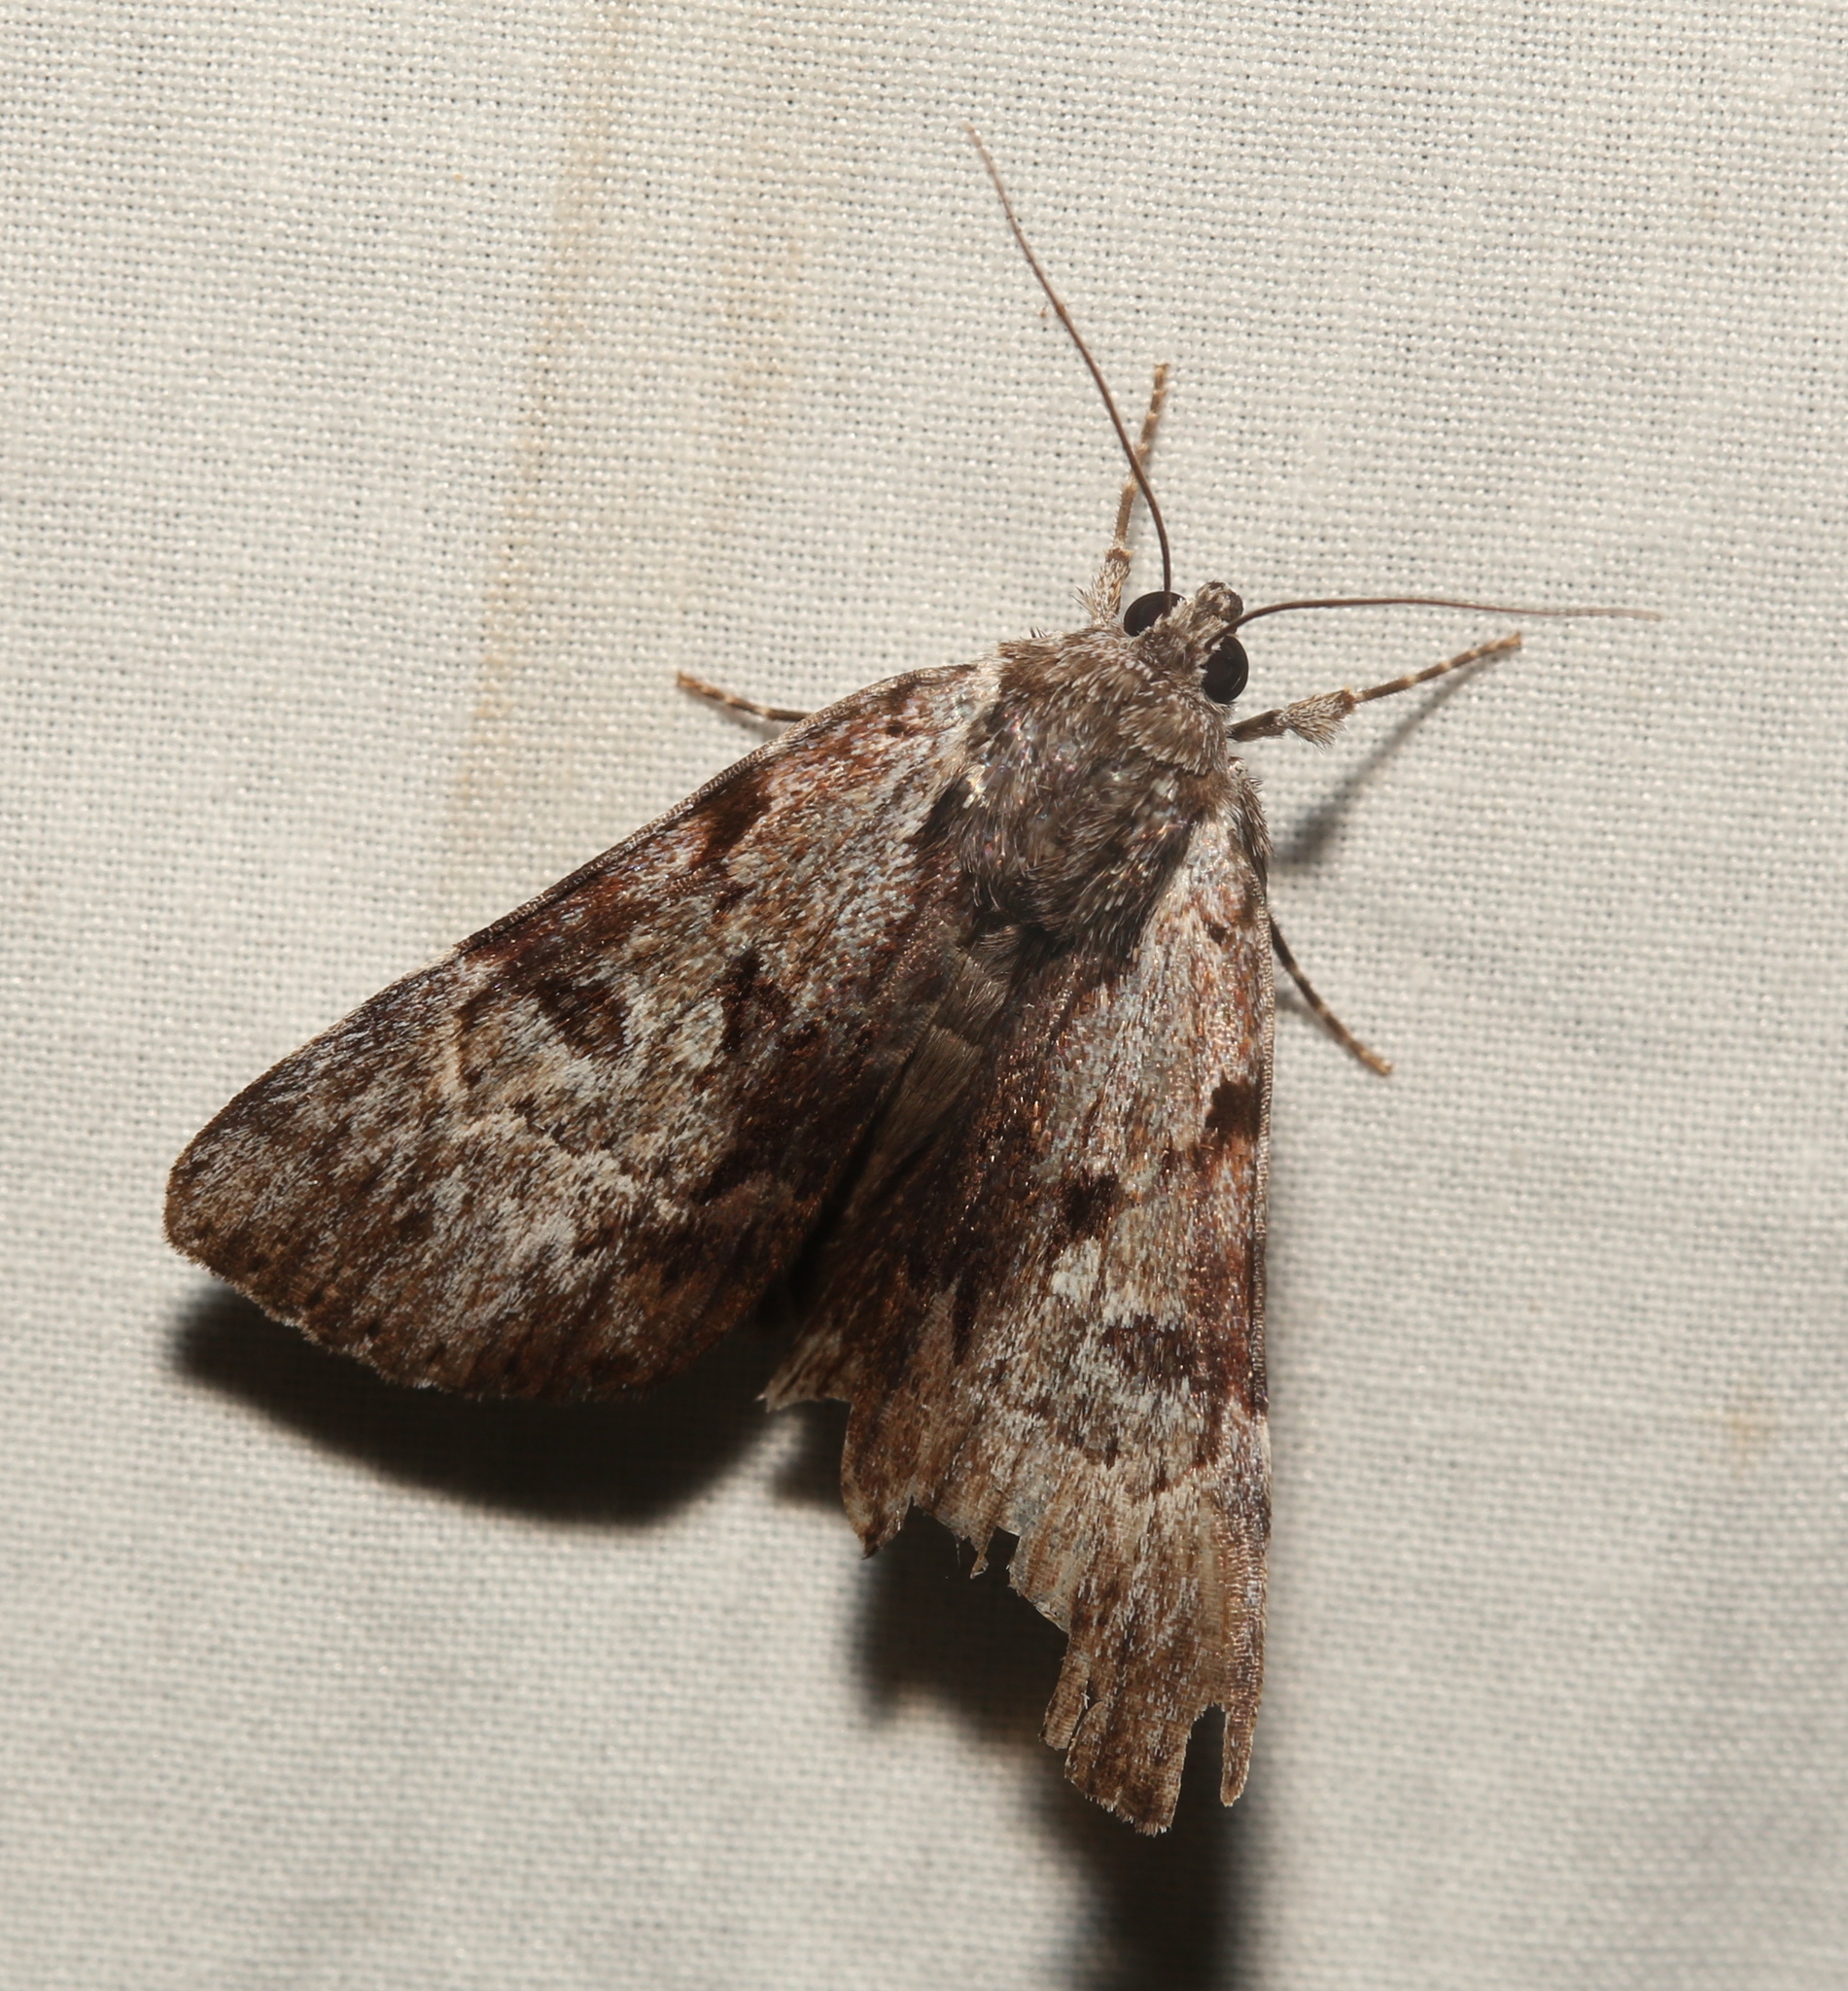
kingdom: Animalia
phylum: Arthropoda
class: Insecta
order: Lepidoptera
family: Erebidae
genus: Catocala
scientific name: Catocala andromedae
